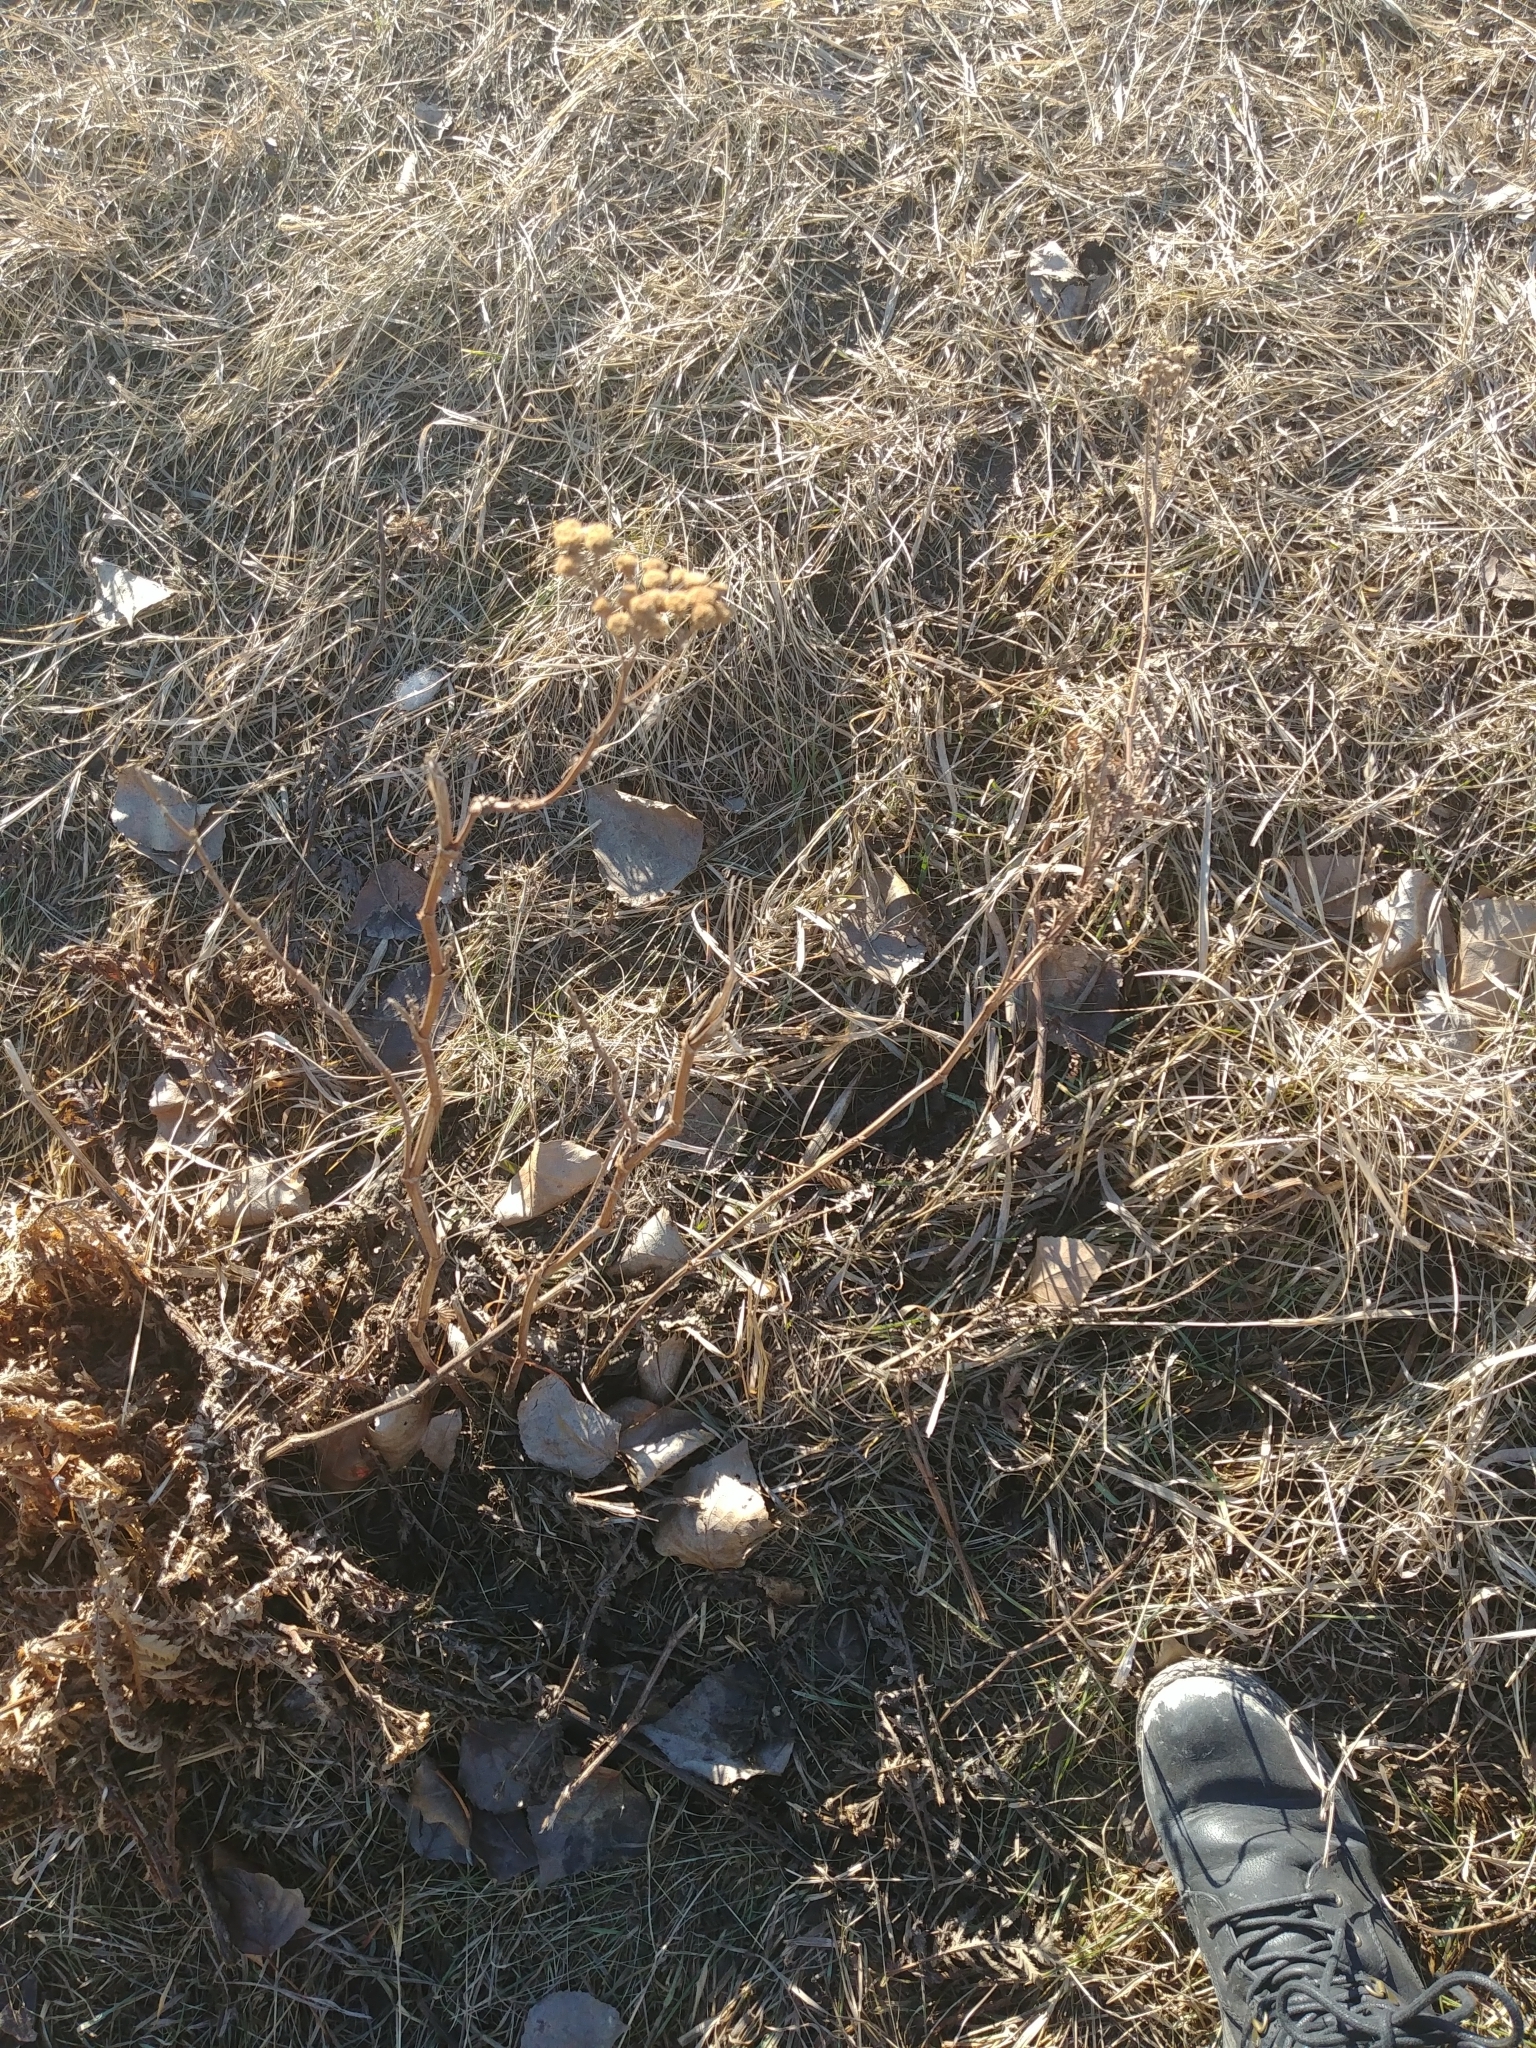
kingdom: Plantae
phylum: Tracheophyta
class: Magnoliopsida
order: Asterales
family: Asteraceae
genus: Tanacetum
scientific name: Tanacetum vulgare
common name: Common tansy
